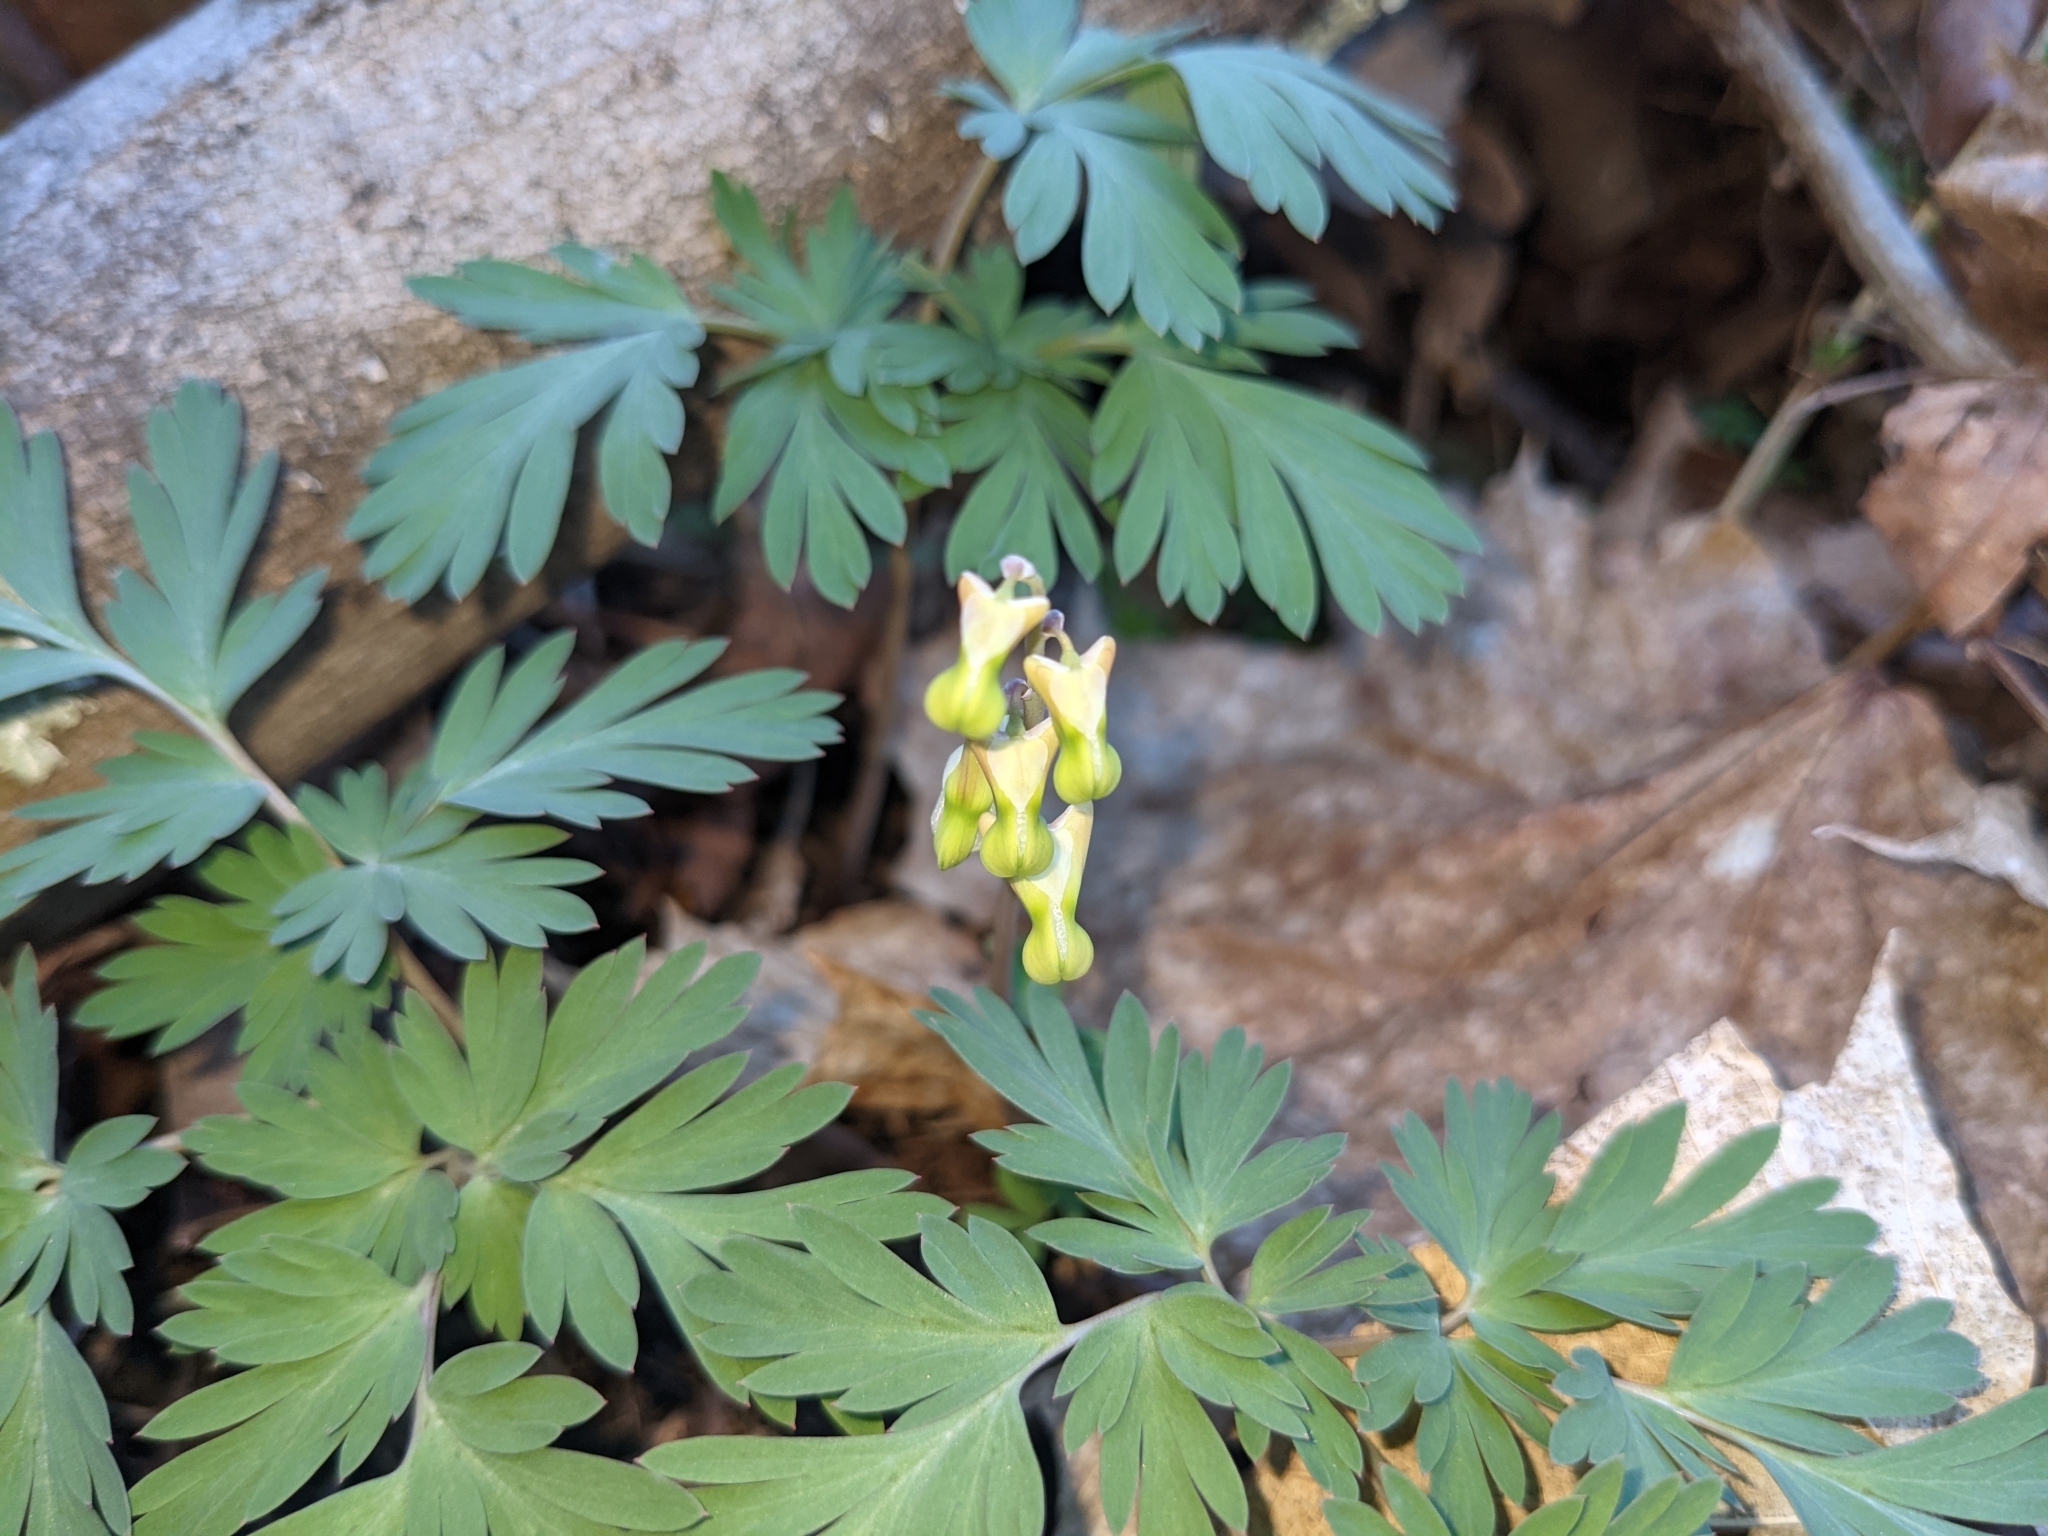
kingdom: Plantae
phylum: Tracheophyta
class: Magnoliopsida
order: Ranunculales
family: Papaveraceae
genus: Dicentra
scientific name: Dicentra cucullaria
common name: Dutchman's breeches
